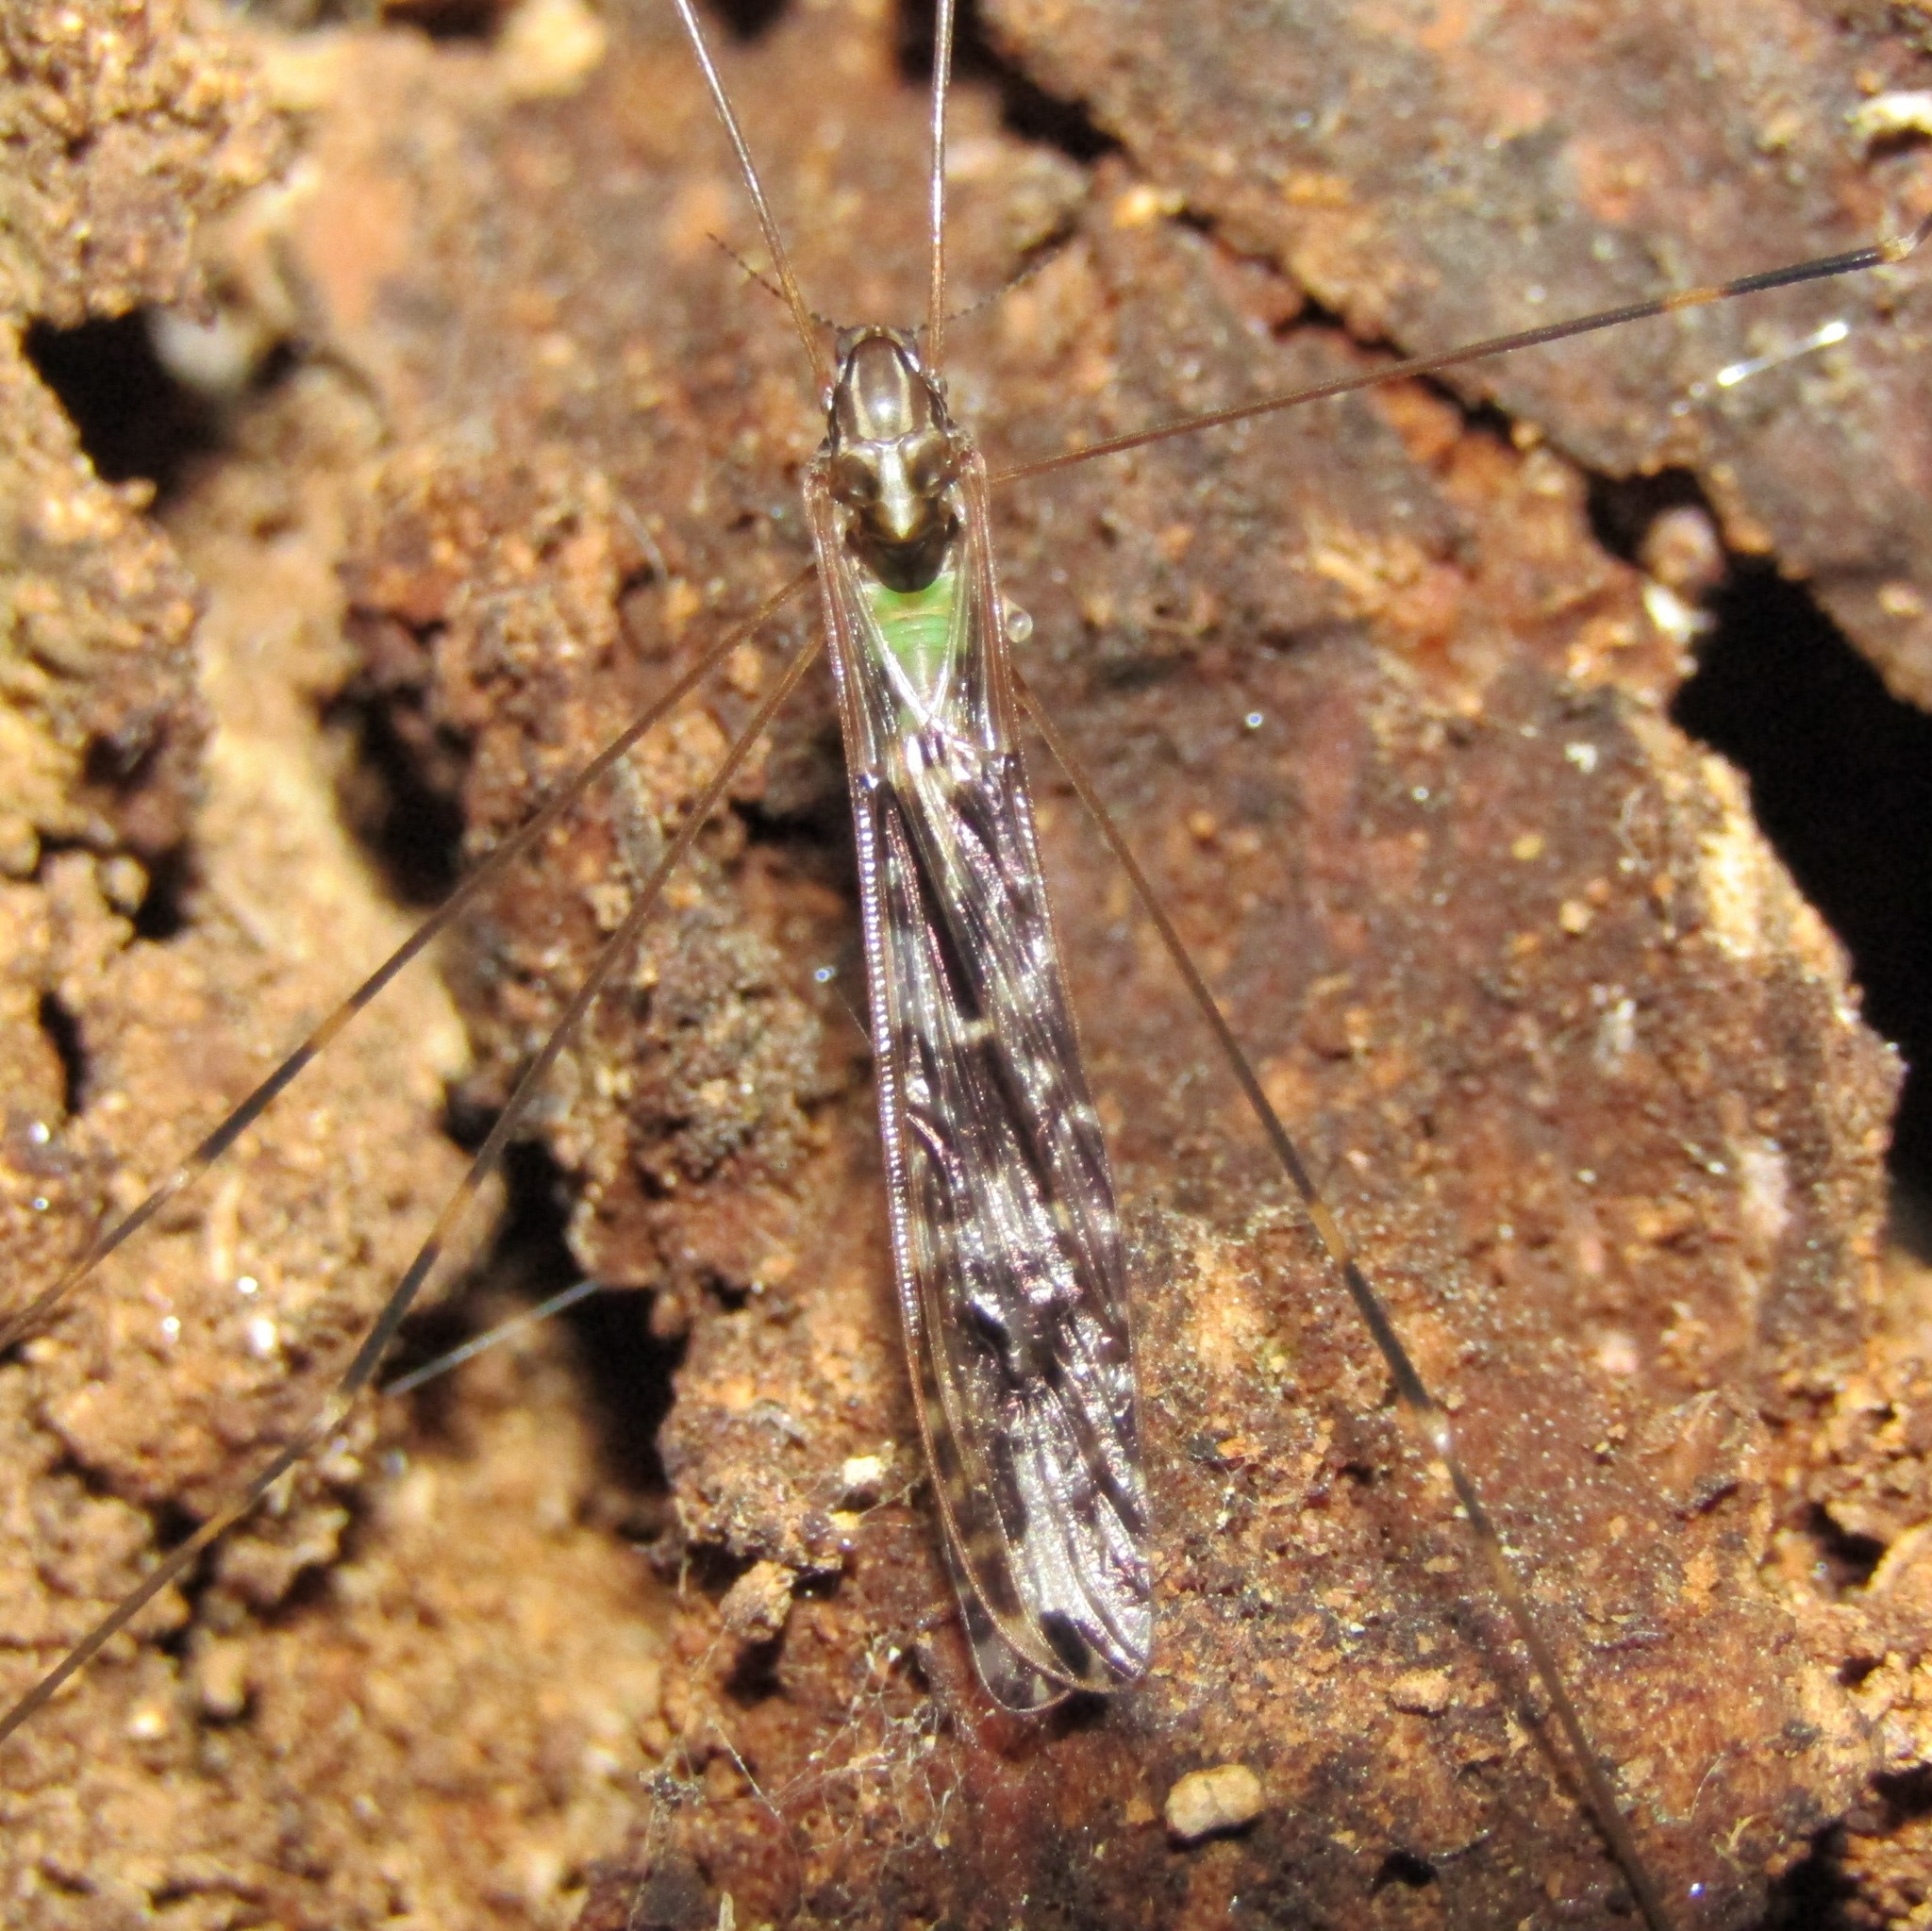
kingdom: Animalia
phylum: Arthropoda
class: Insecta
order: Diptera
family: Limoniidae
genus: Discobola
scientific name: Discobola dohrni
